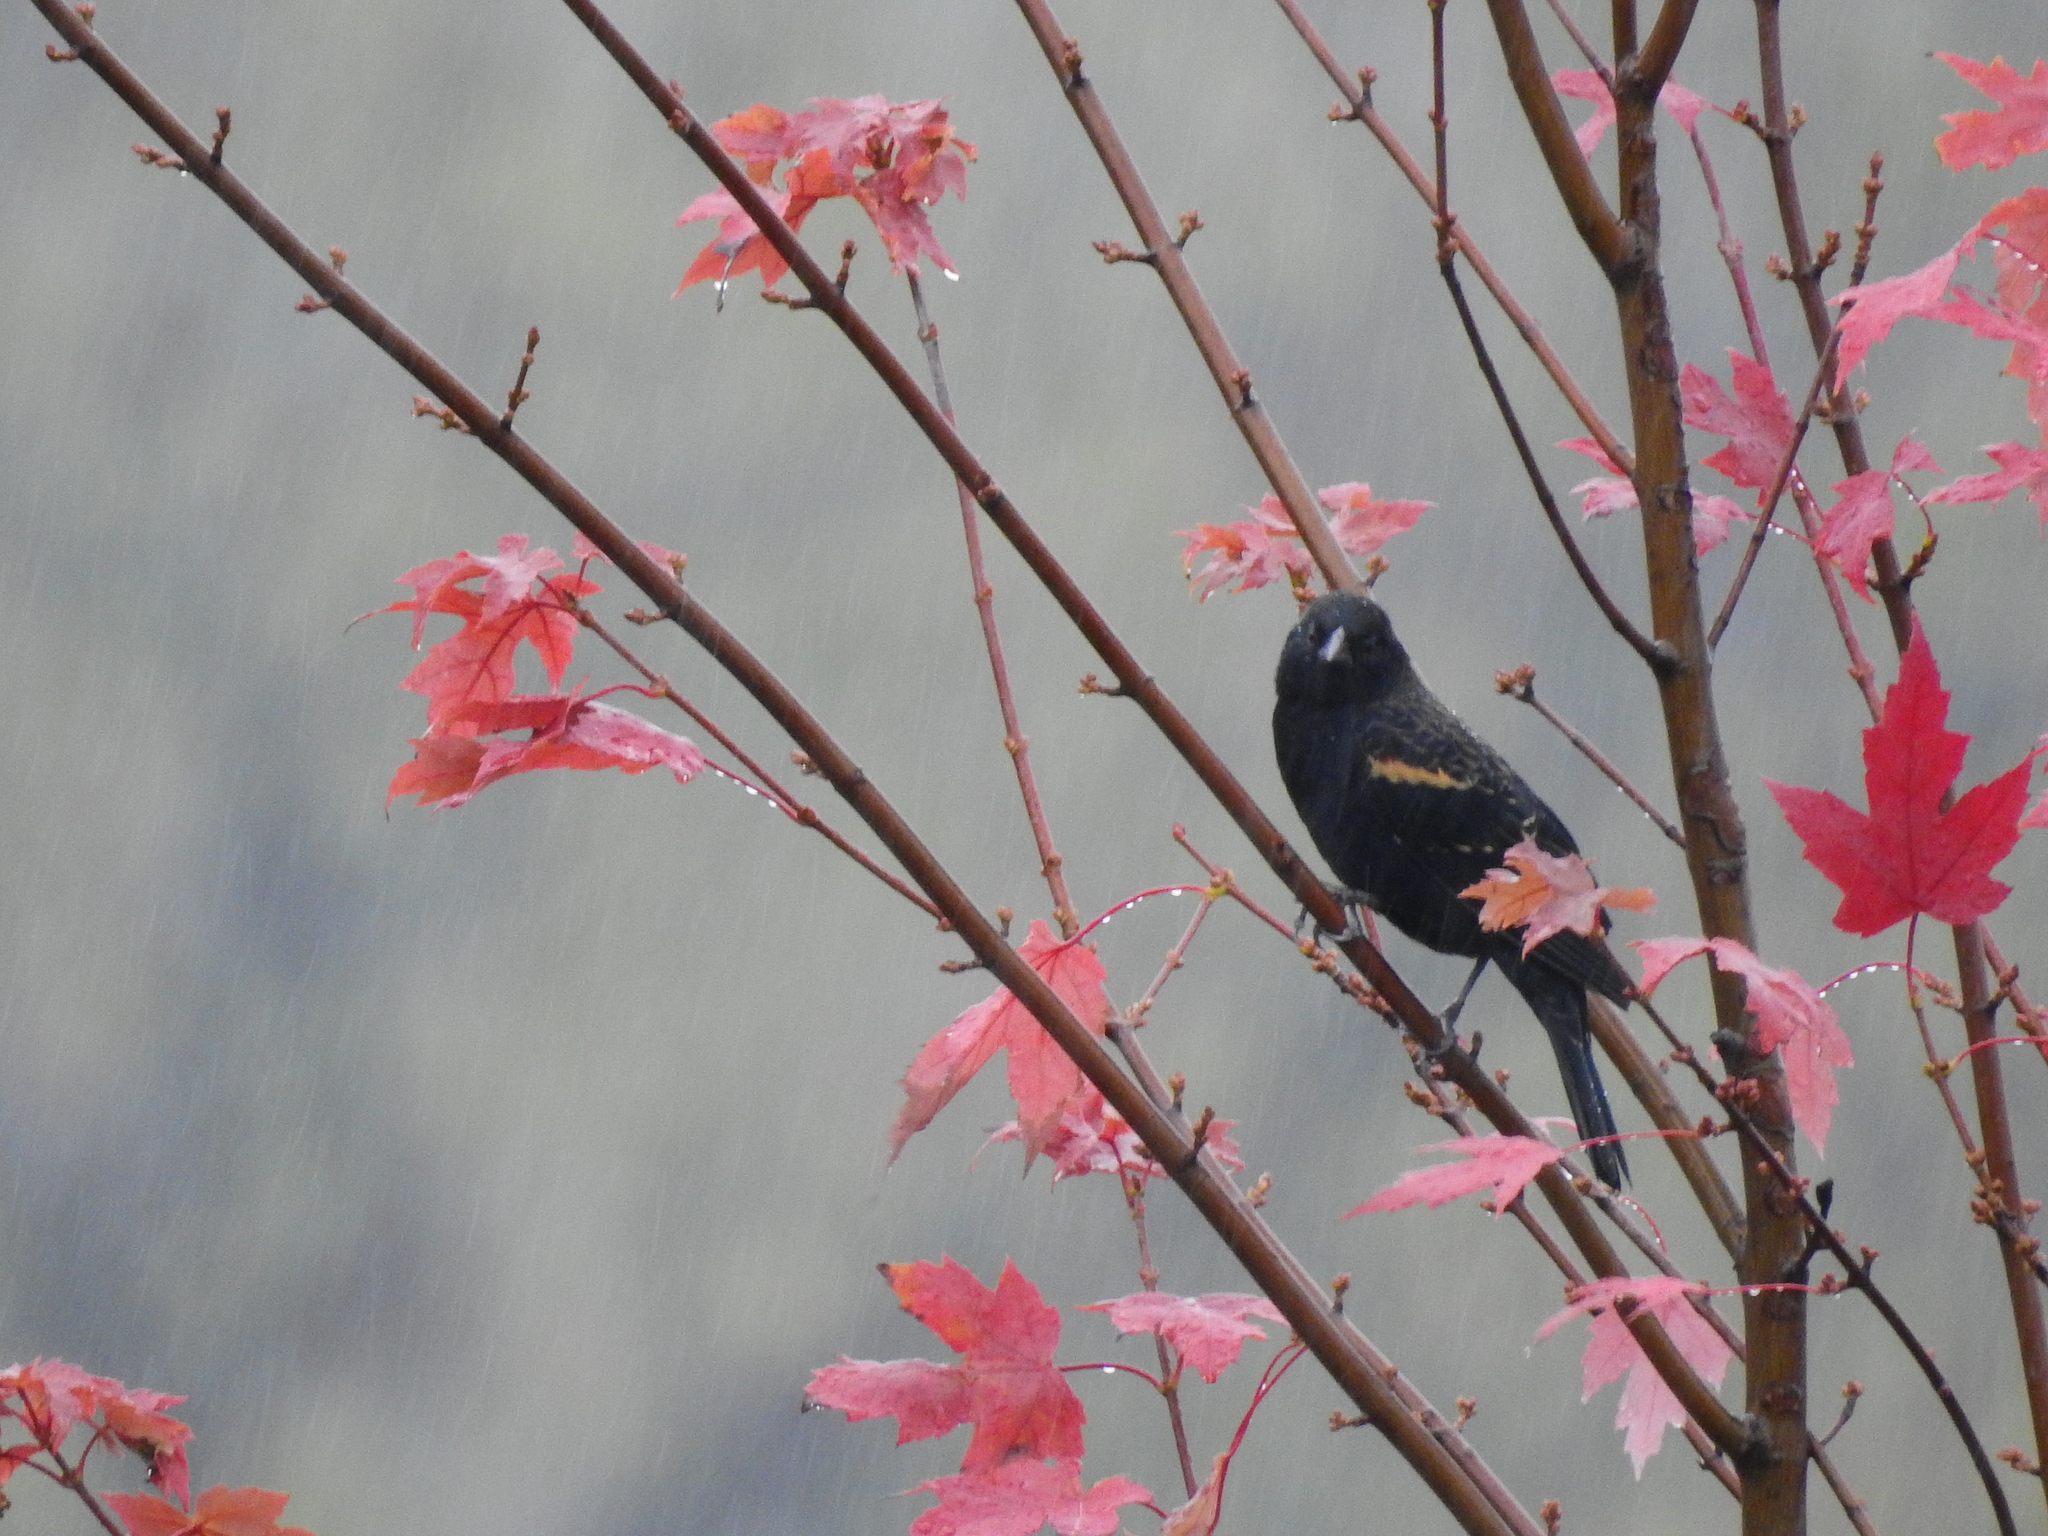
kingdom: Animalia
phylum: Chordata
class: Aves
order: Passeriformes
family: Icteridae
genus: Agelaius
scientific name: Agelaius phoeniceus
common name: Red-winged blackbird
